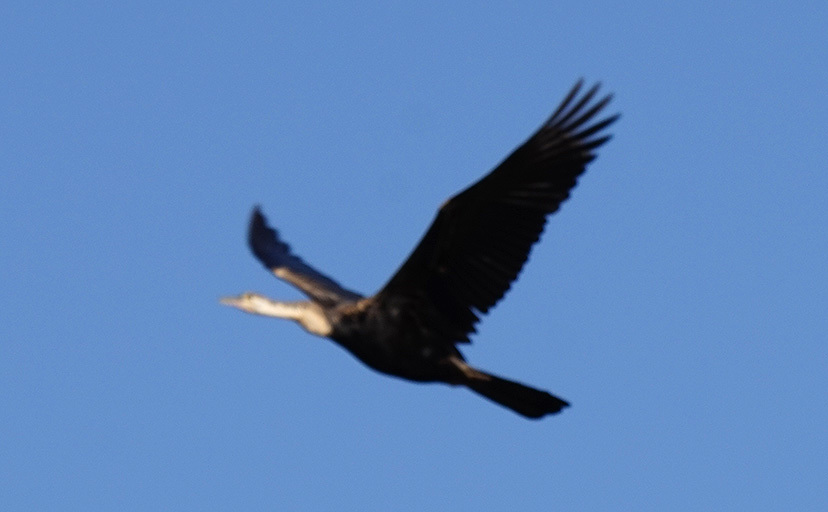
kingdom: Animalia
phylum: Chordata
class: Aves
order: Suliformes
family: Anhingidae
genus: Anhinga
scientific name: Anhinga rufa
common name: African darter
